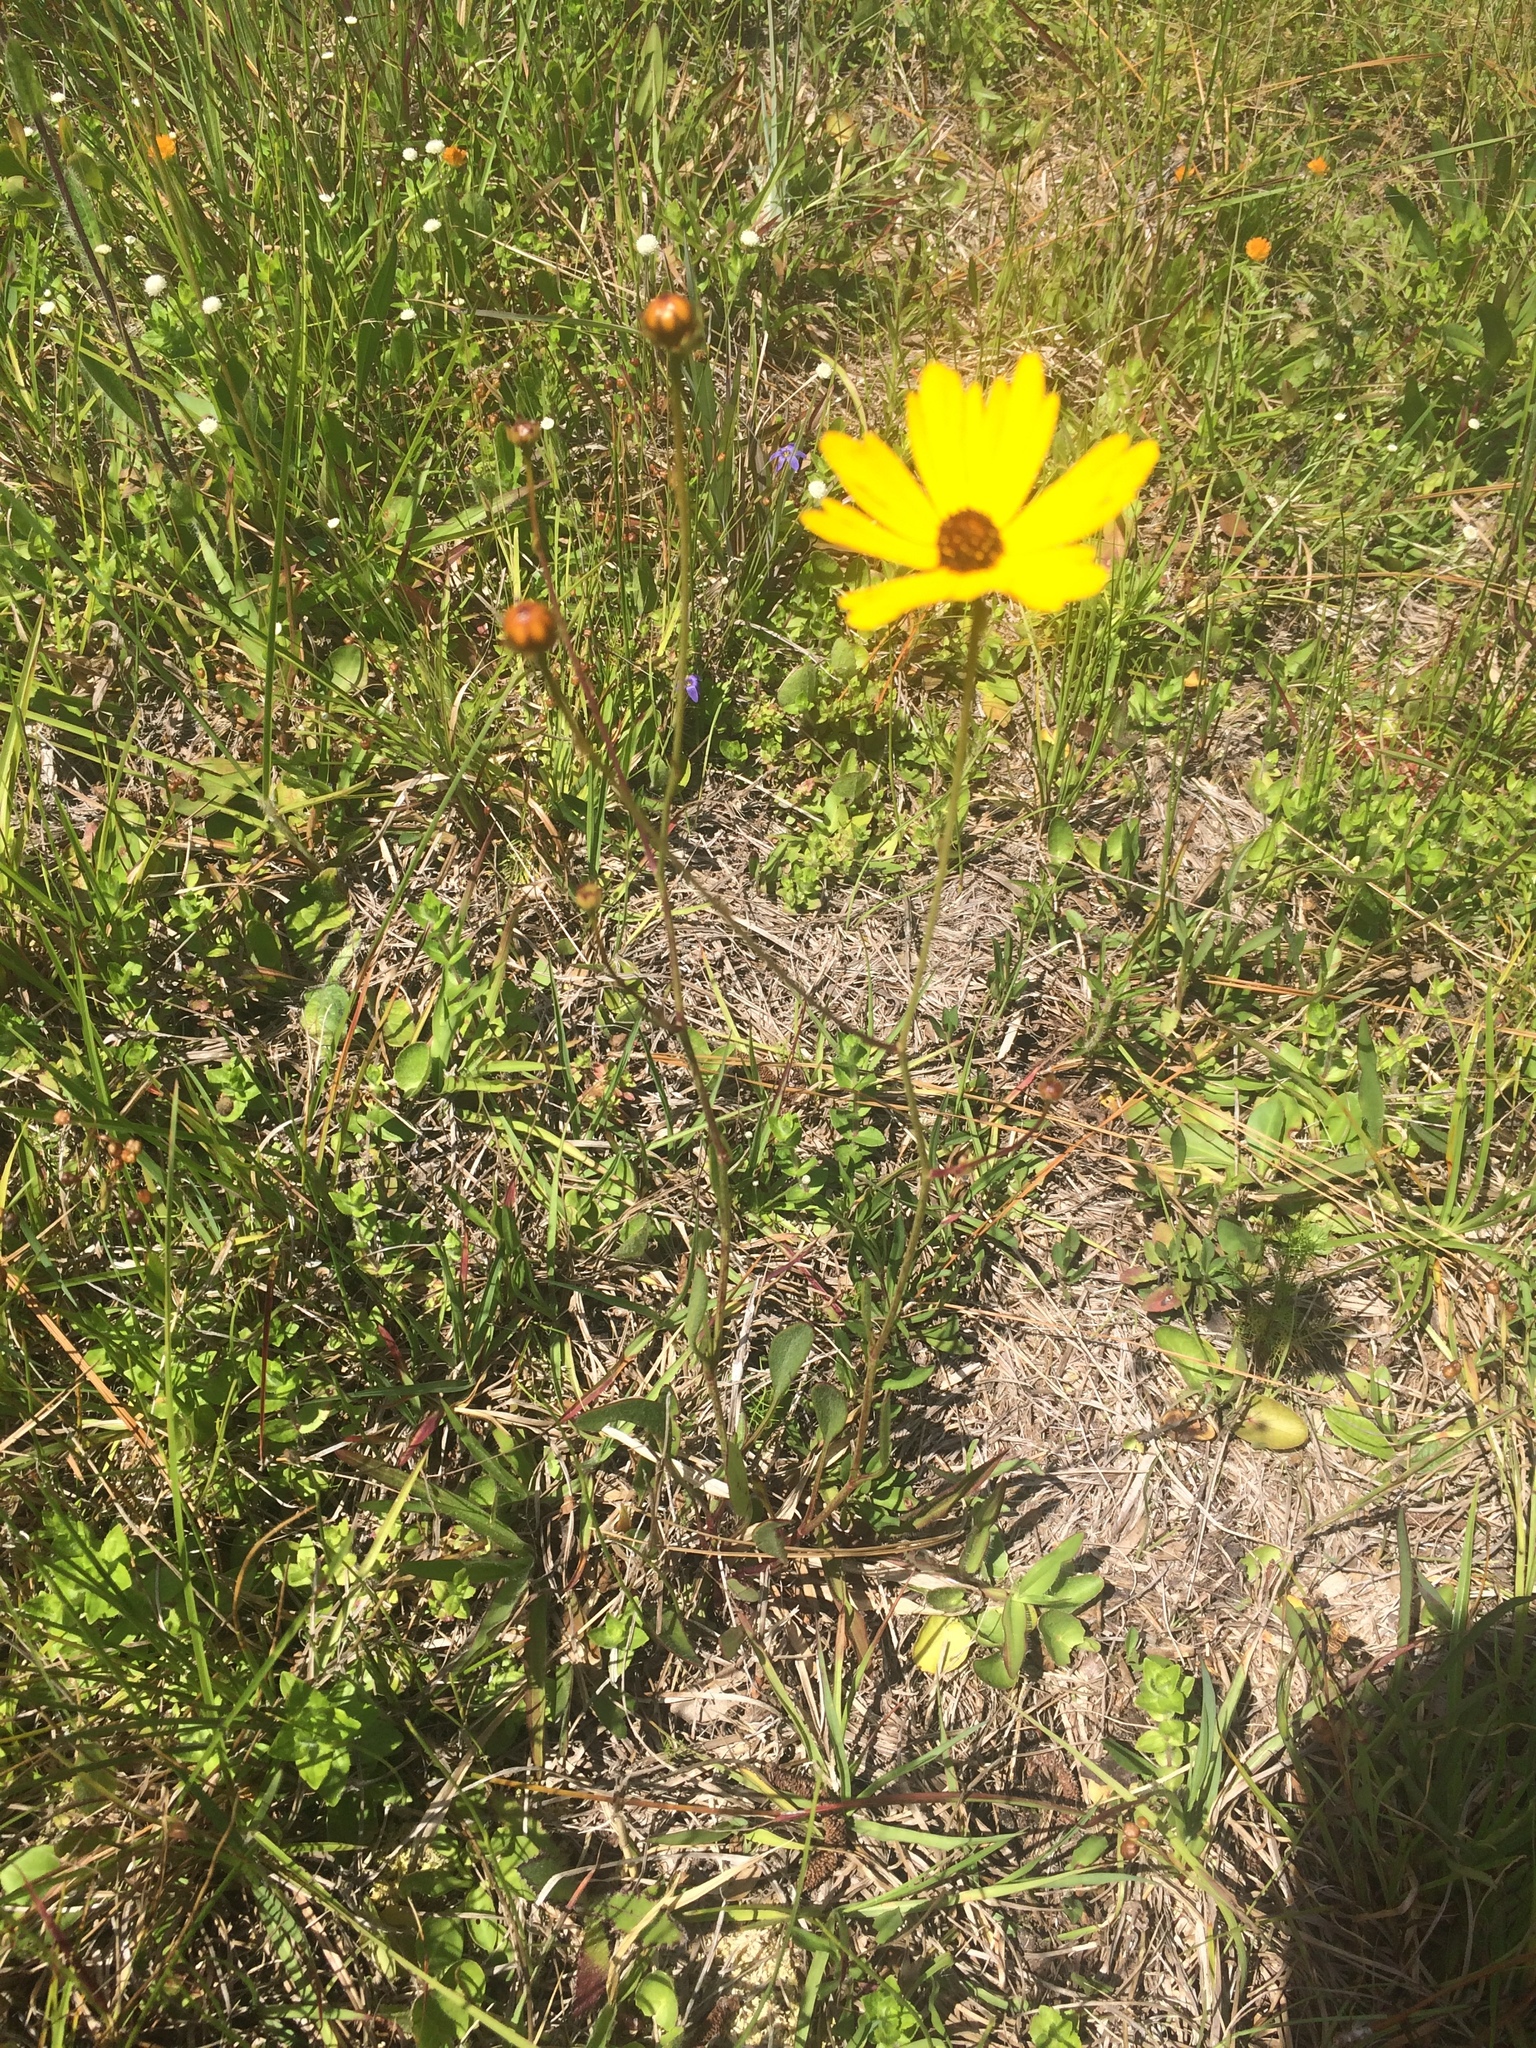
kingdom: Plantae
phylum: Tracheophyta
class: Magnoliopsida
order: Asterales
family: Asteraceae
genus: Coreopsis
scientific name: Coreopsis leavenworthii
